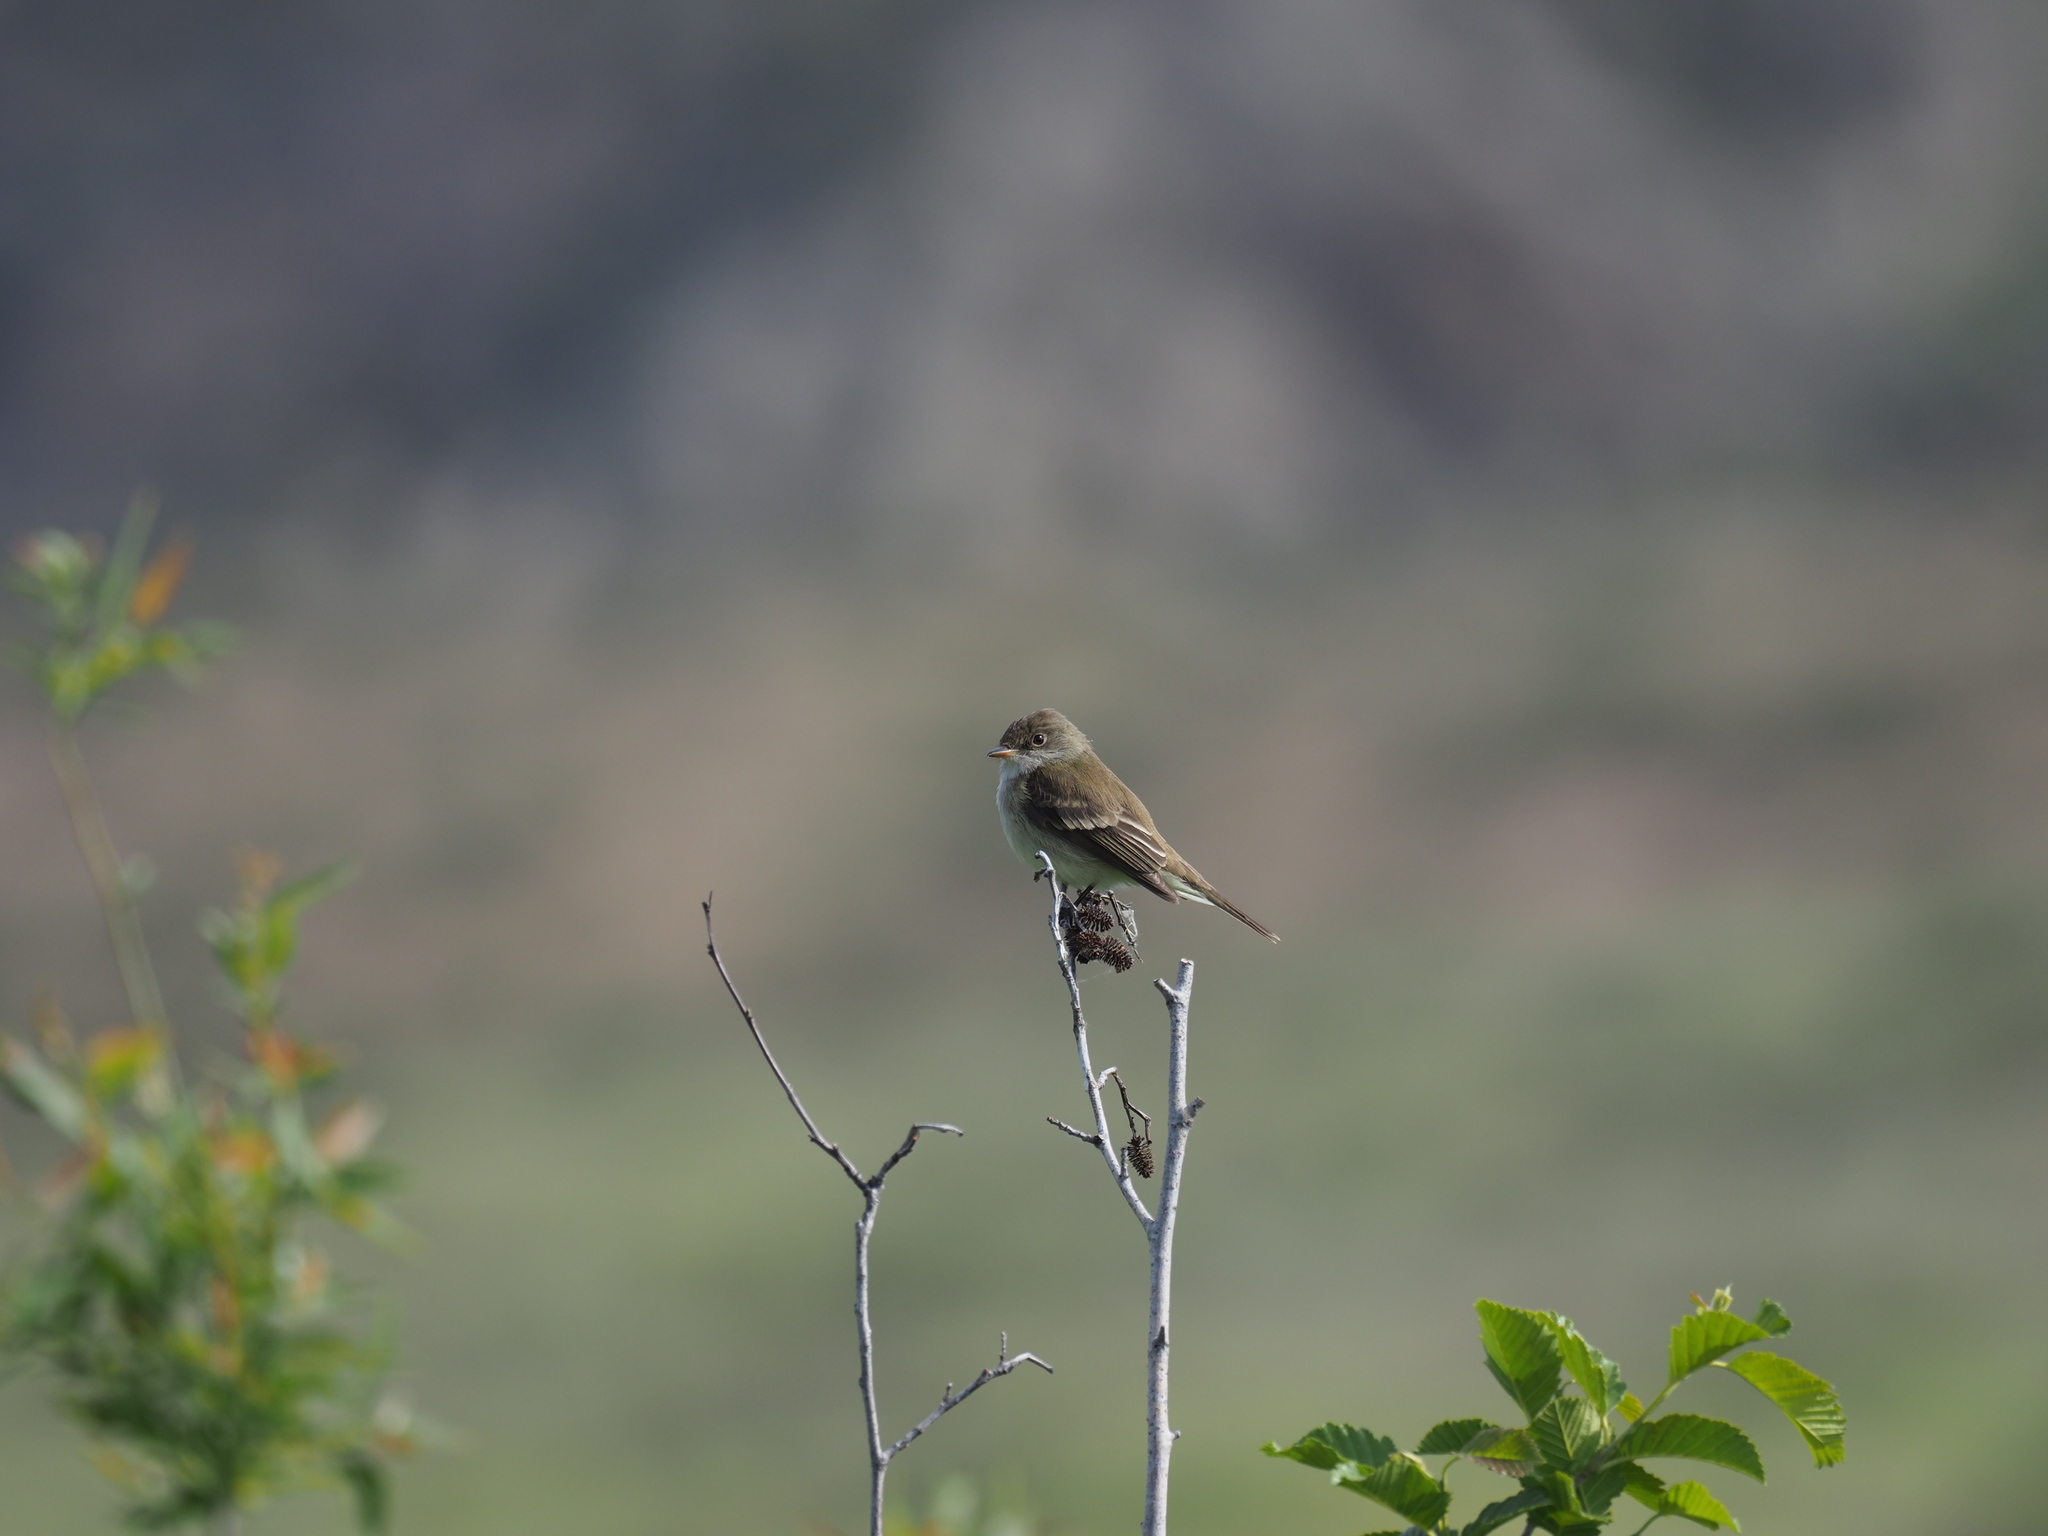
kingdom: Animalia
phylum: Chordata
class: Aves
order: Passeriformes
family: Tyrannidae
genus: Empidonax
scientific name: Empidonax traillii
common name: Willow flycatcher
